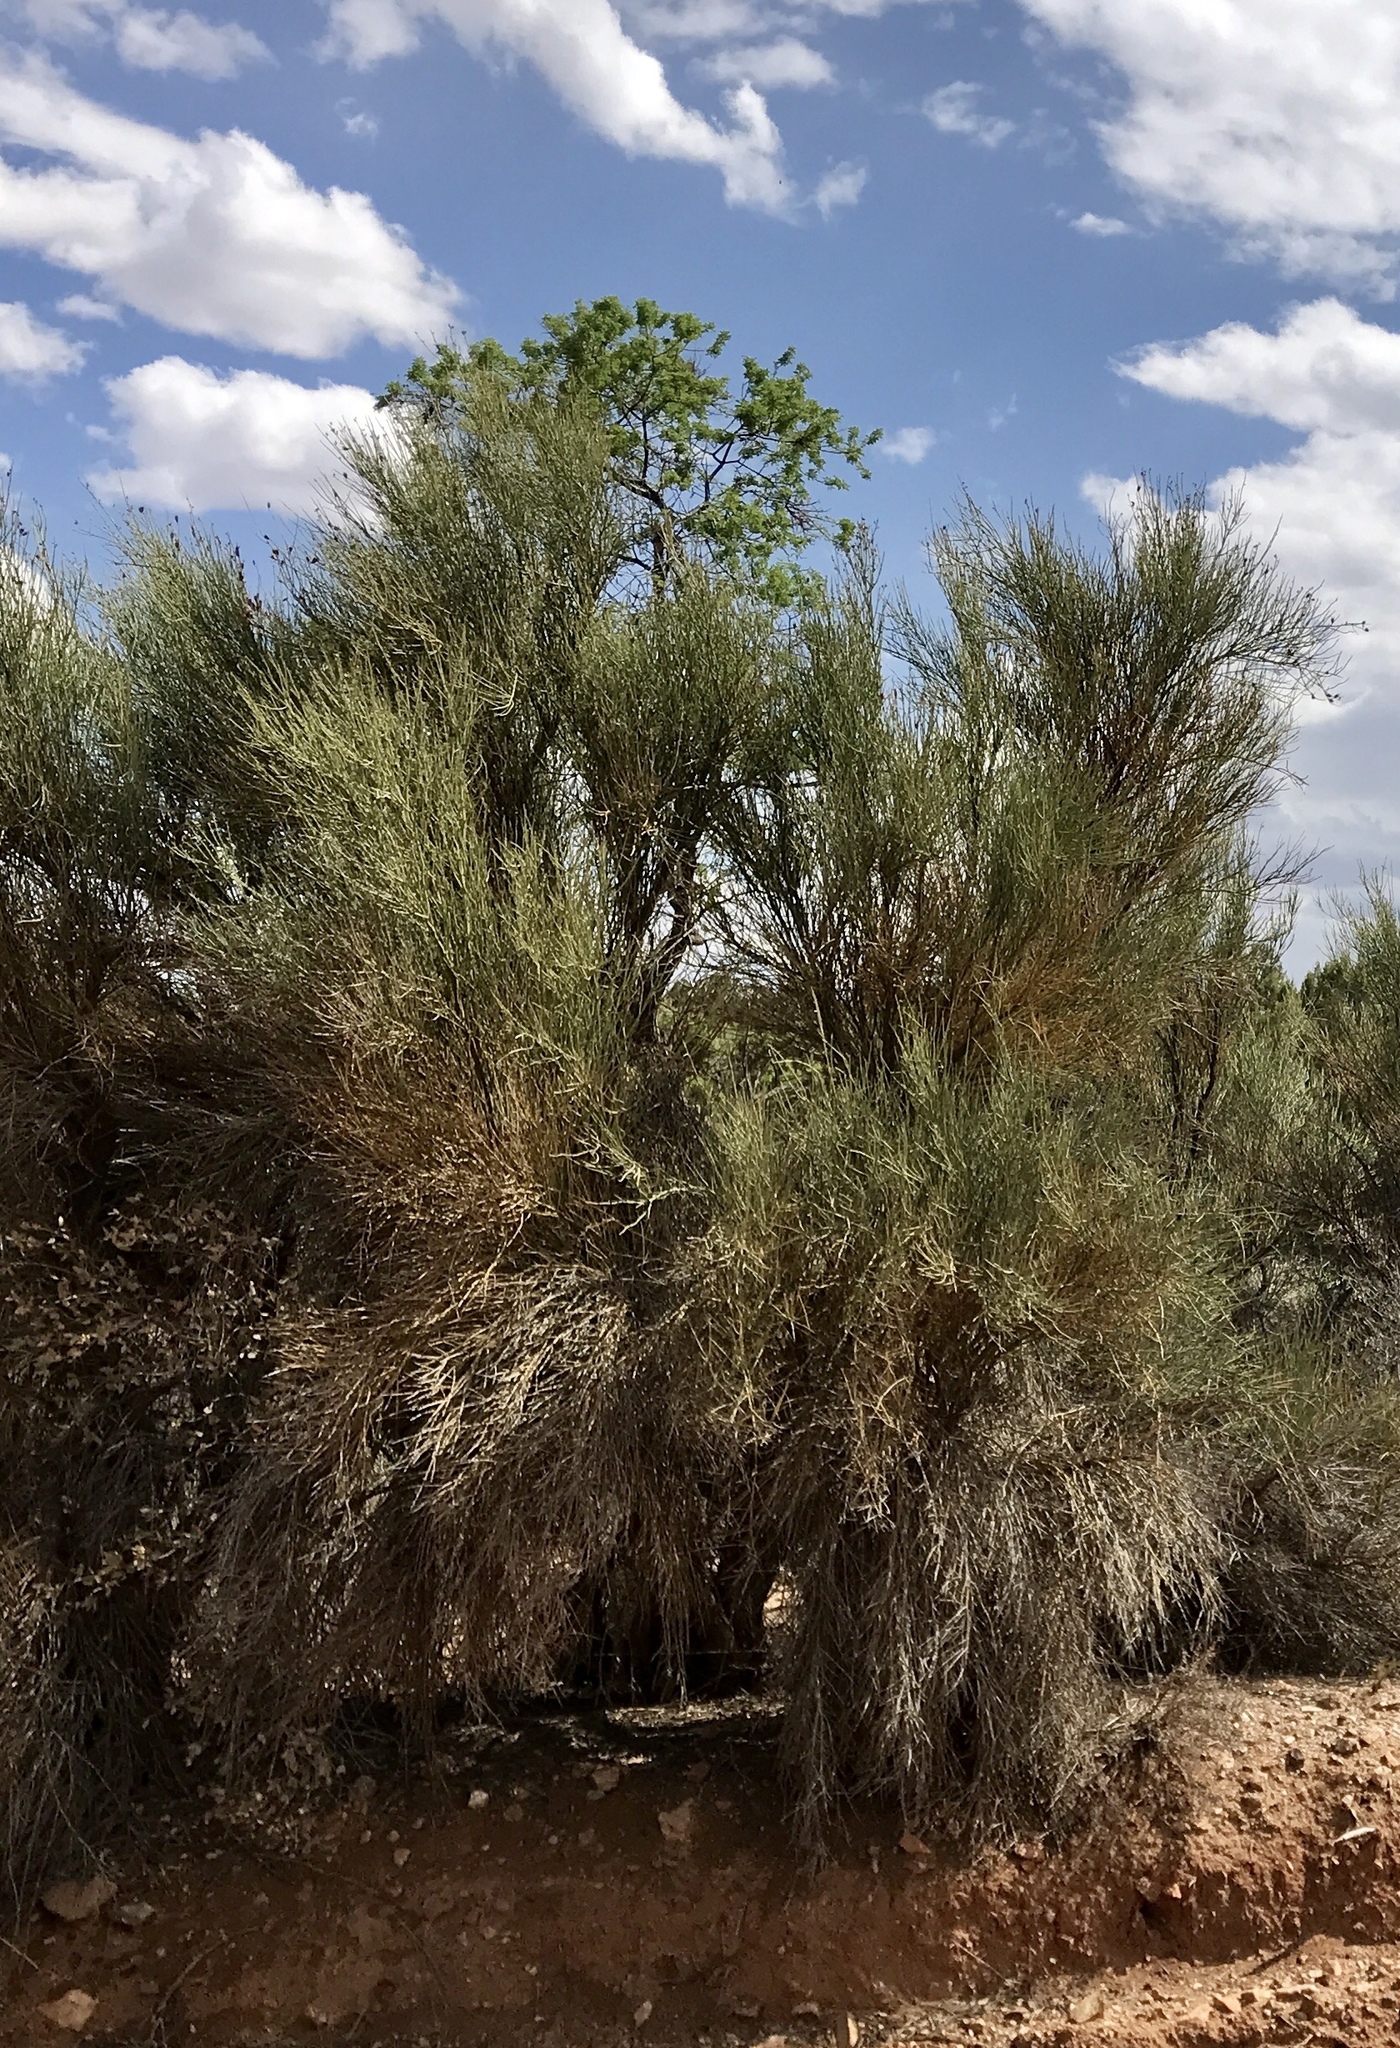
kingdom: Plantae
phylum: Tracheophyta
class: Magnoliopsida
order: Celastrales
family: Celastraceae
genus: Canotia
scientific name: Canotia holacantha
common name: Crucifixion thorns
